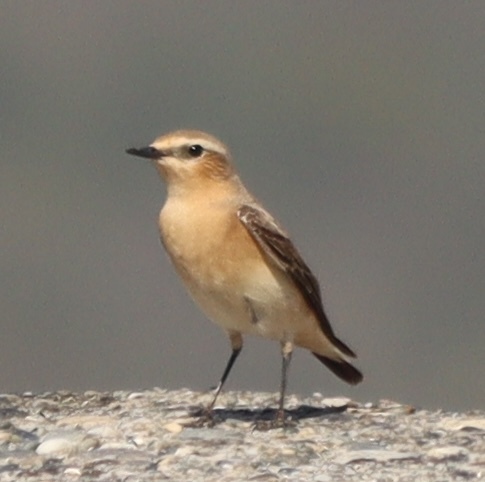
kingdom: Animalia
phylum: Chordata
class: Aves
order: Passeriformes
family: Muscicapidae
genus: Oenanthe
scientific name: Oenanthe oenanthe
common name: Northern wheatear
